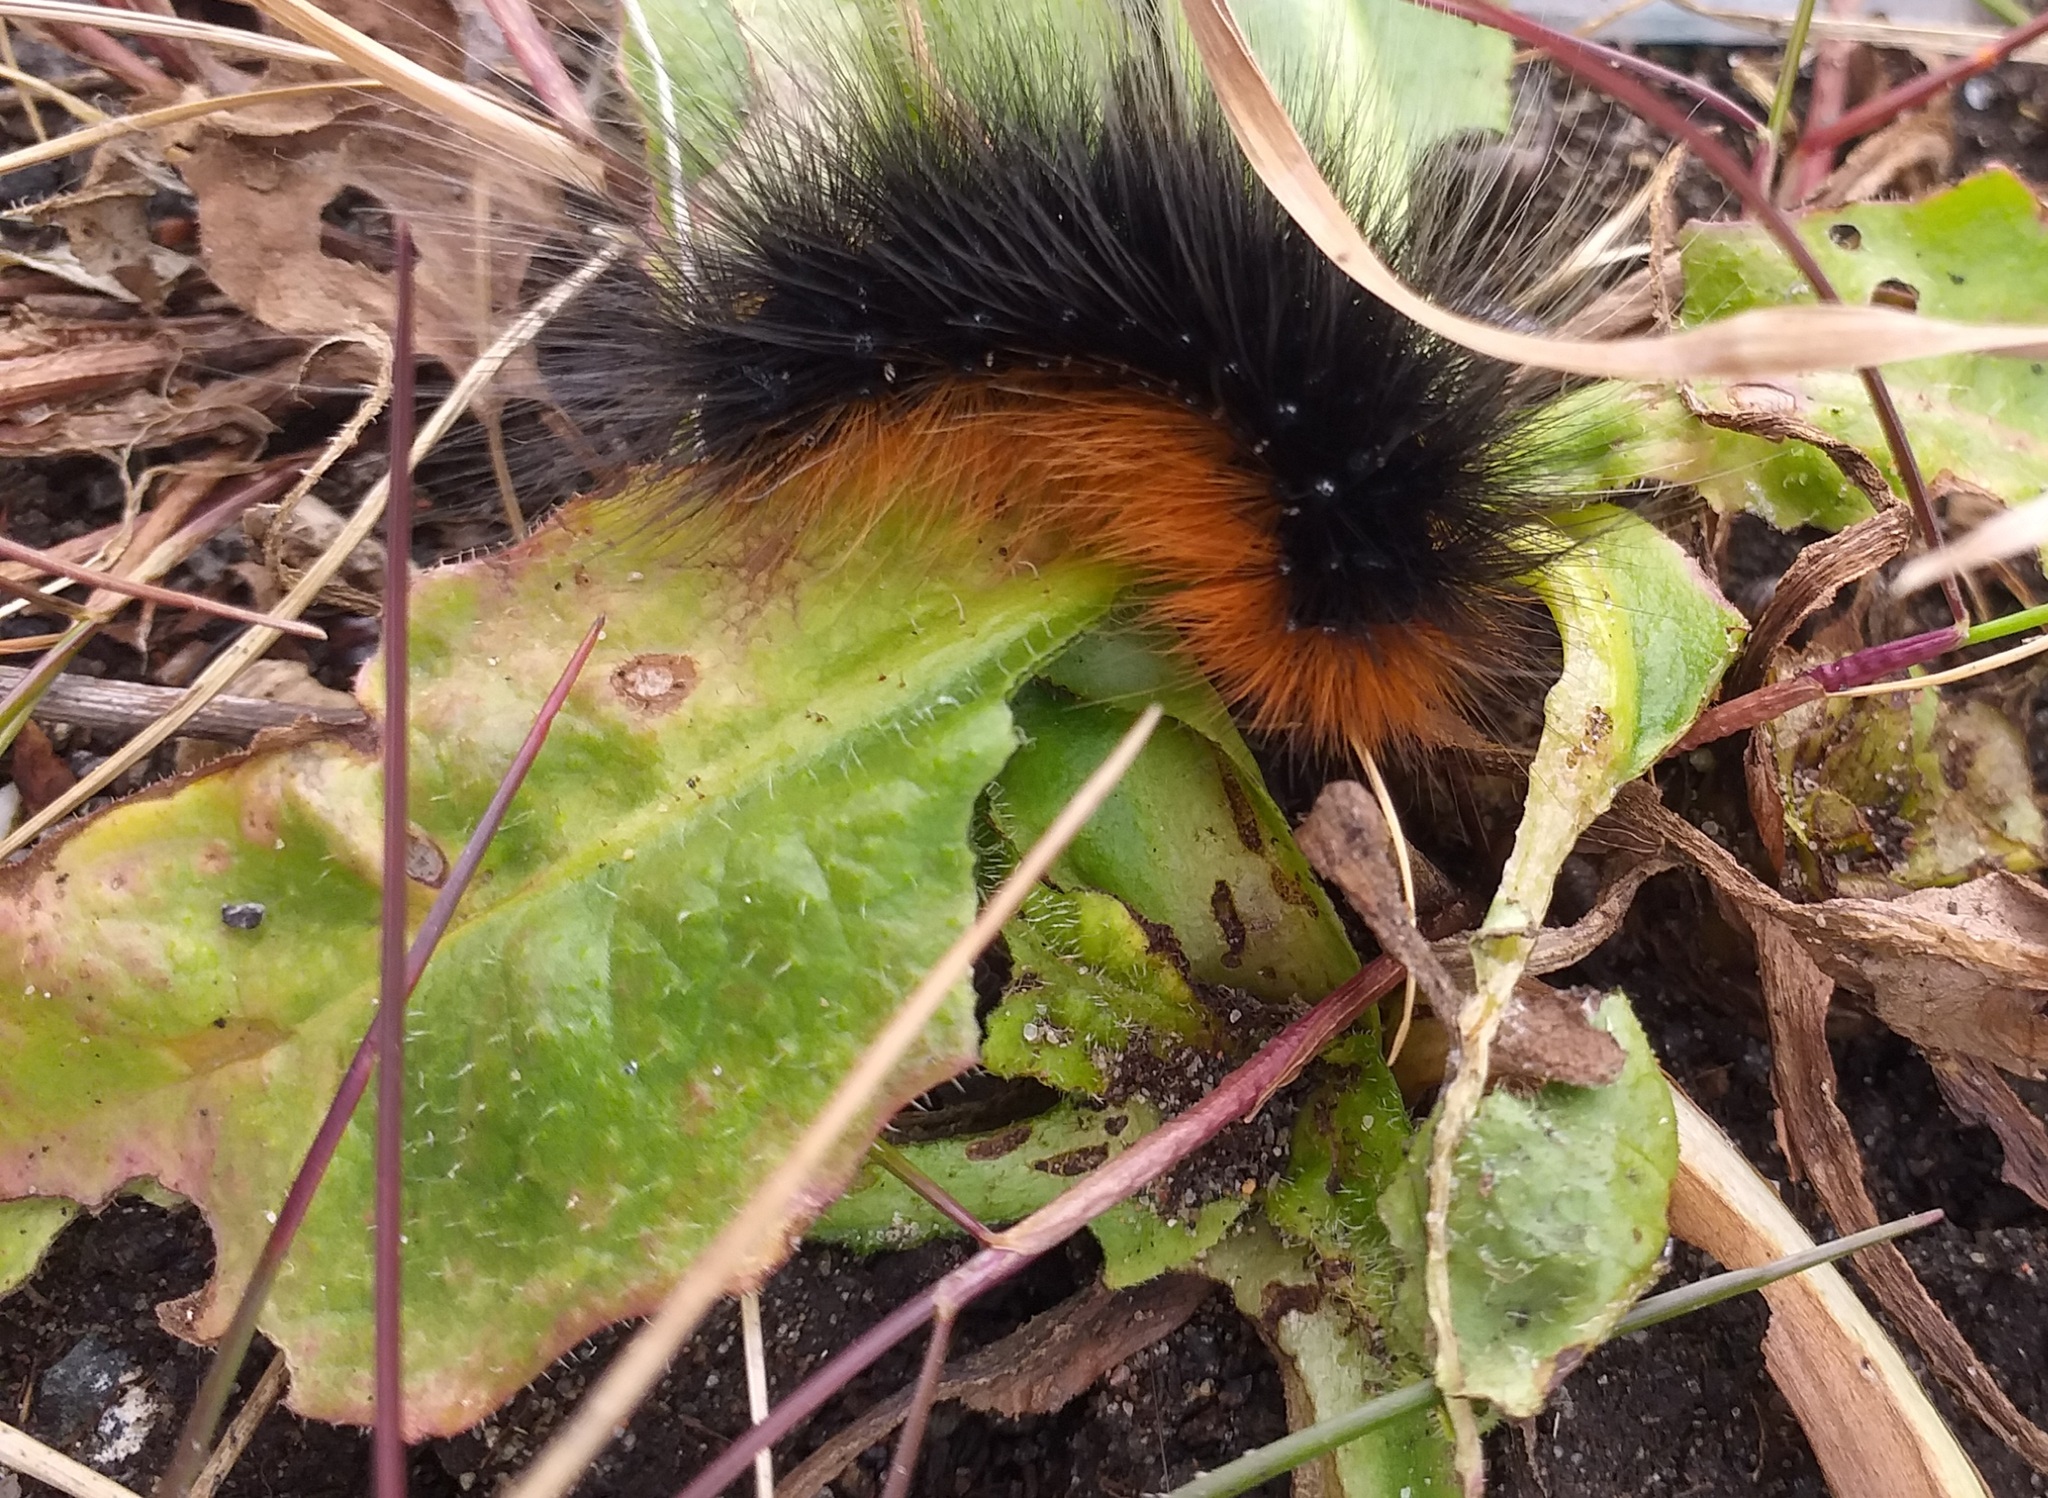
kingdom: Animalia
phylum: Arthropoda
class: Insecta
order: Lepidoptera
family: Erebidae
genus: Arctia
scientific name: Arctia caja
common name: Garden tiger
